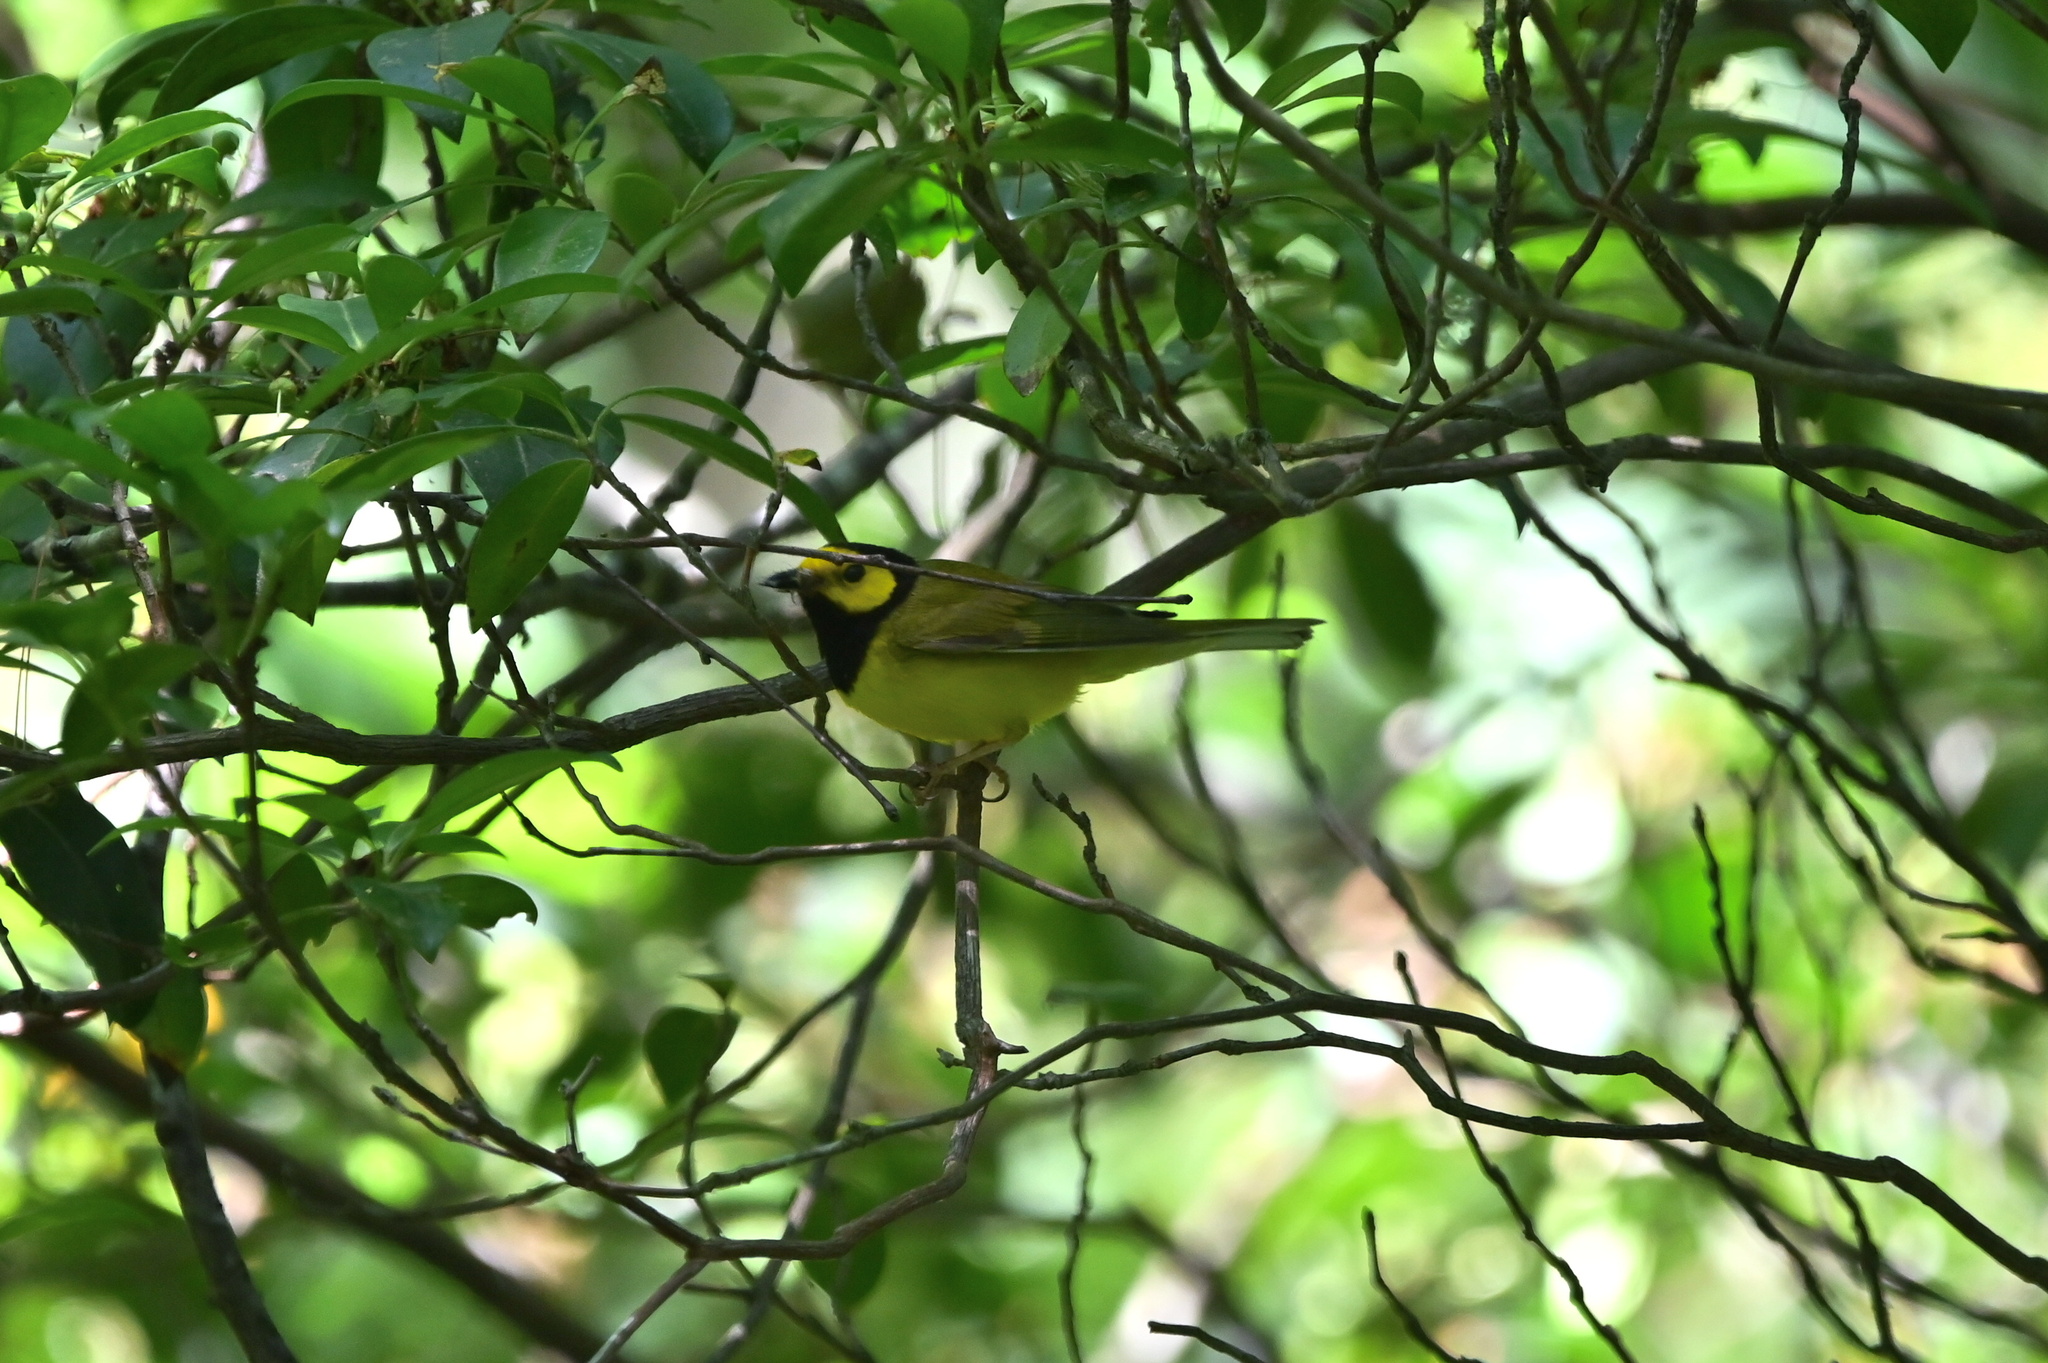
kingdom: Animalia
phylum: Chordata
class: Aves
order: Passeriformes
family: Parulidae
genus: Setophaga
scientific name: Setophaga citrina
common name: Hooded warbler
